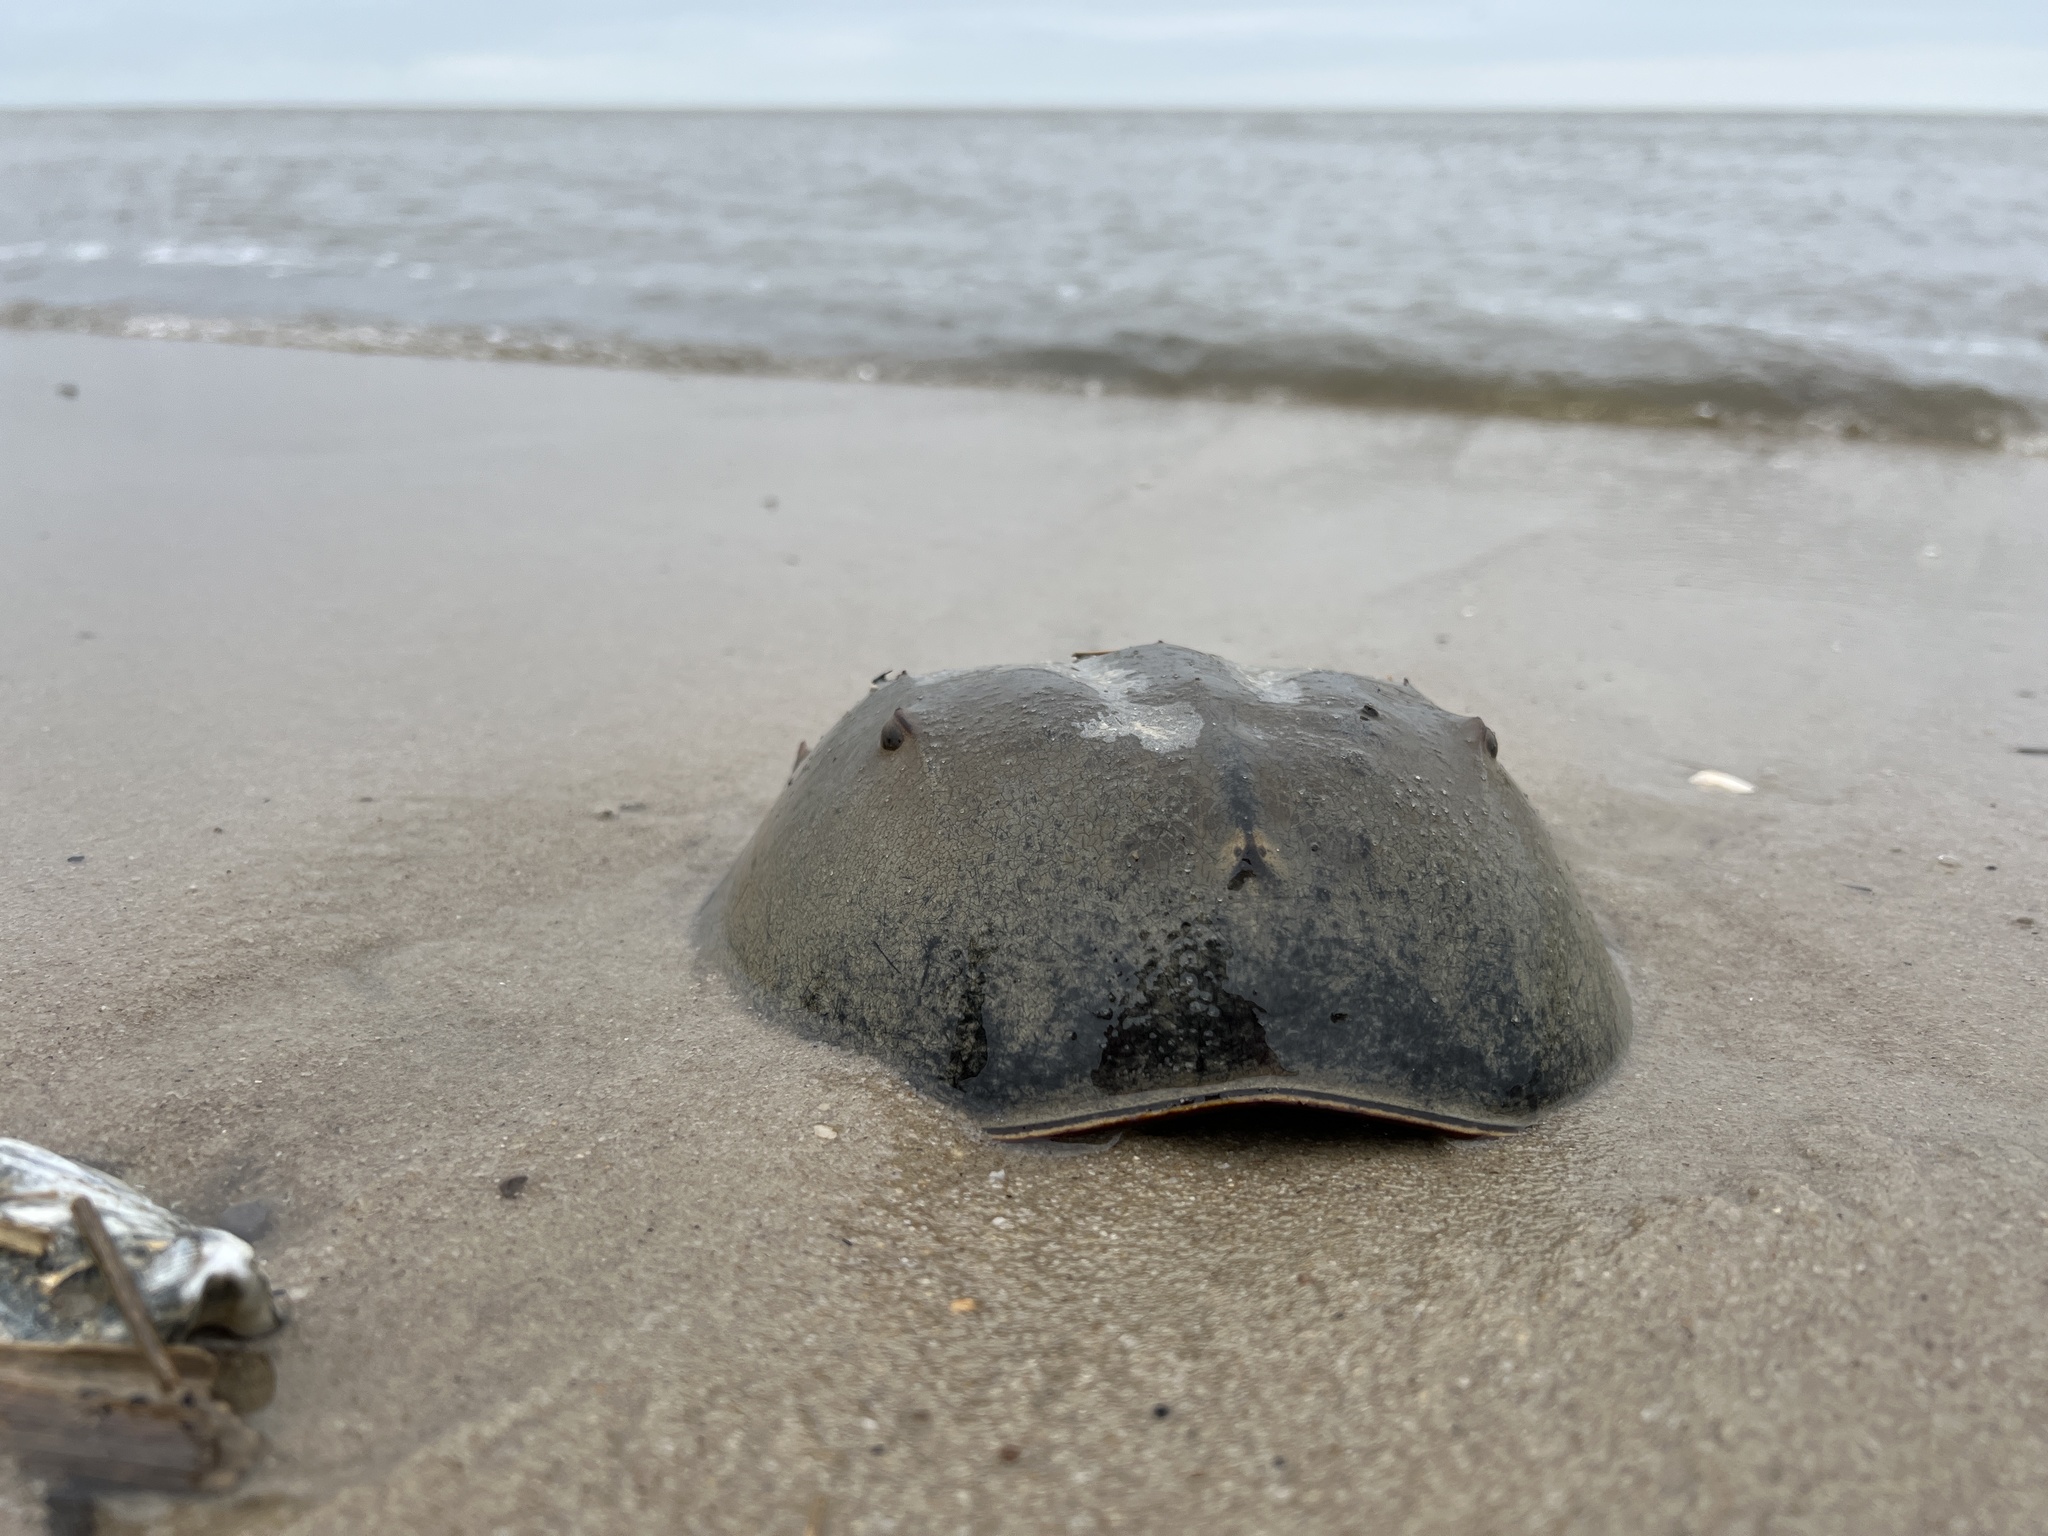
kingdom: Animalia
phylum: Arthropoda
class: Merostomata
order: Xiphosurida
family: Limulidae
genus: Limulus
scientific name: Limulus polyphemus
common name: Horseshoe crab
